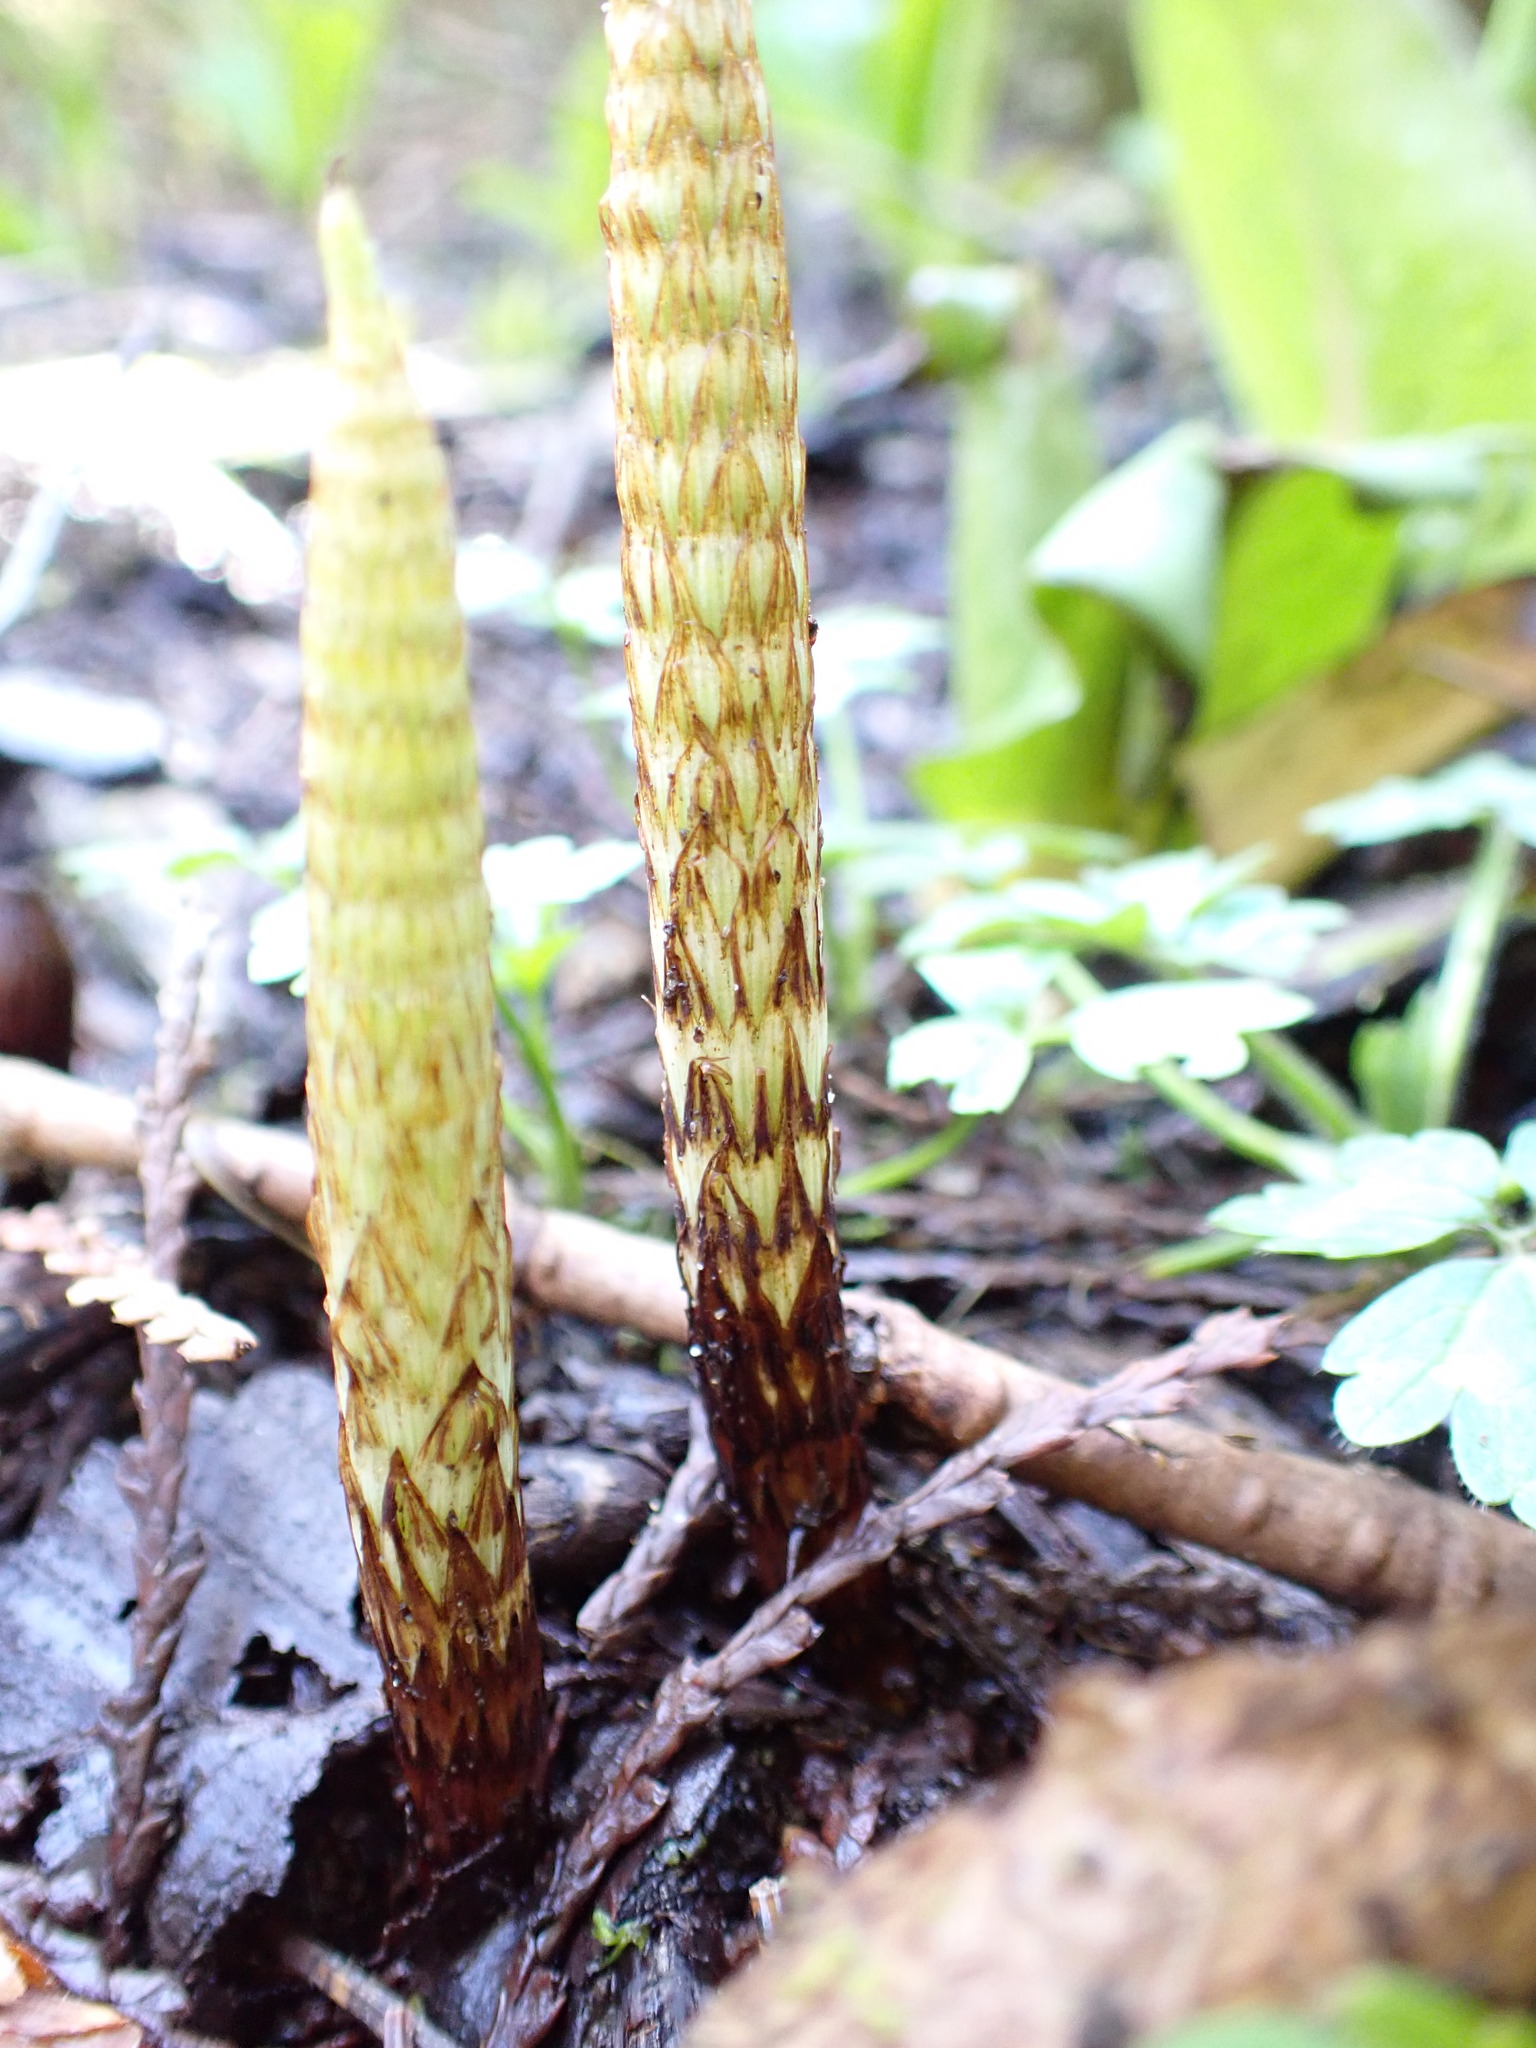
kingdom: Plantae
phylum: Tracheophyta
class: Polypodiopsida
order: Equisetales
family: Equisetaceae
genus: Equisetum
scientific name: Equisetum braunii
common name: Braun's horsetail
